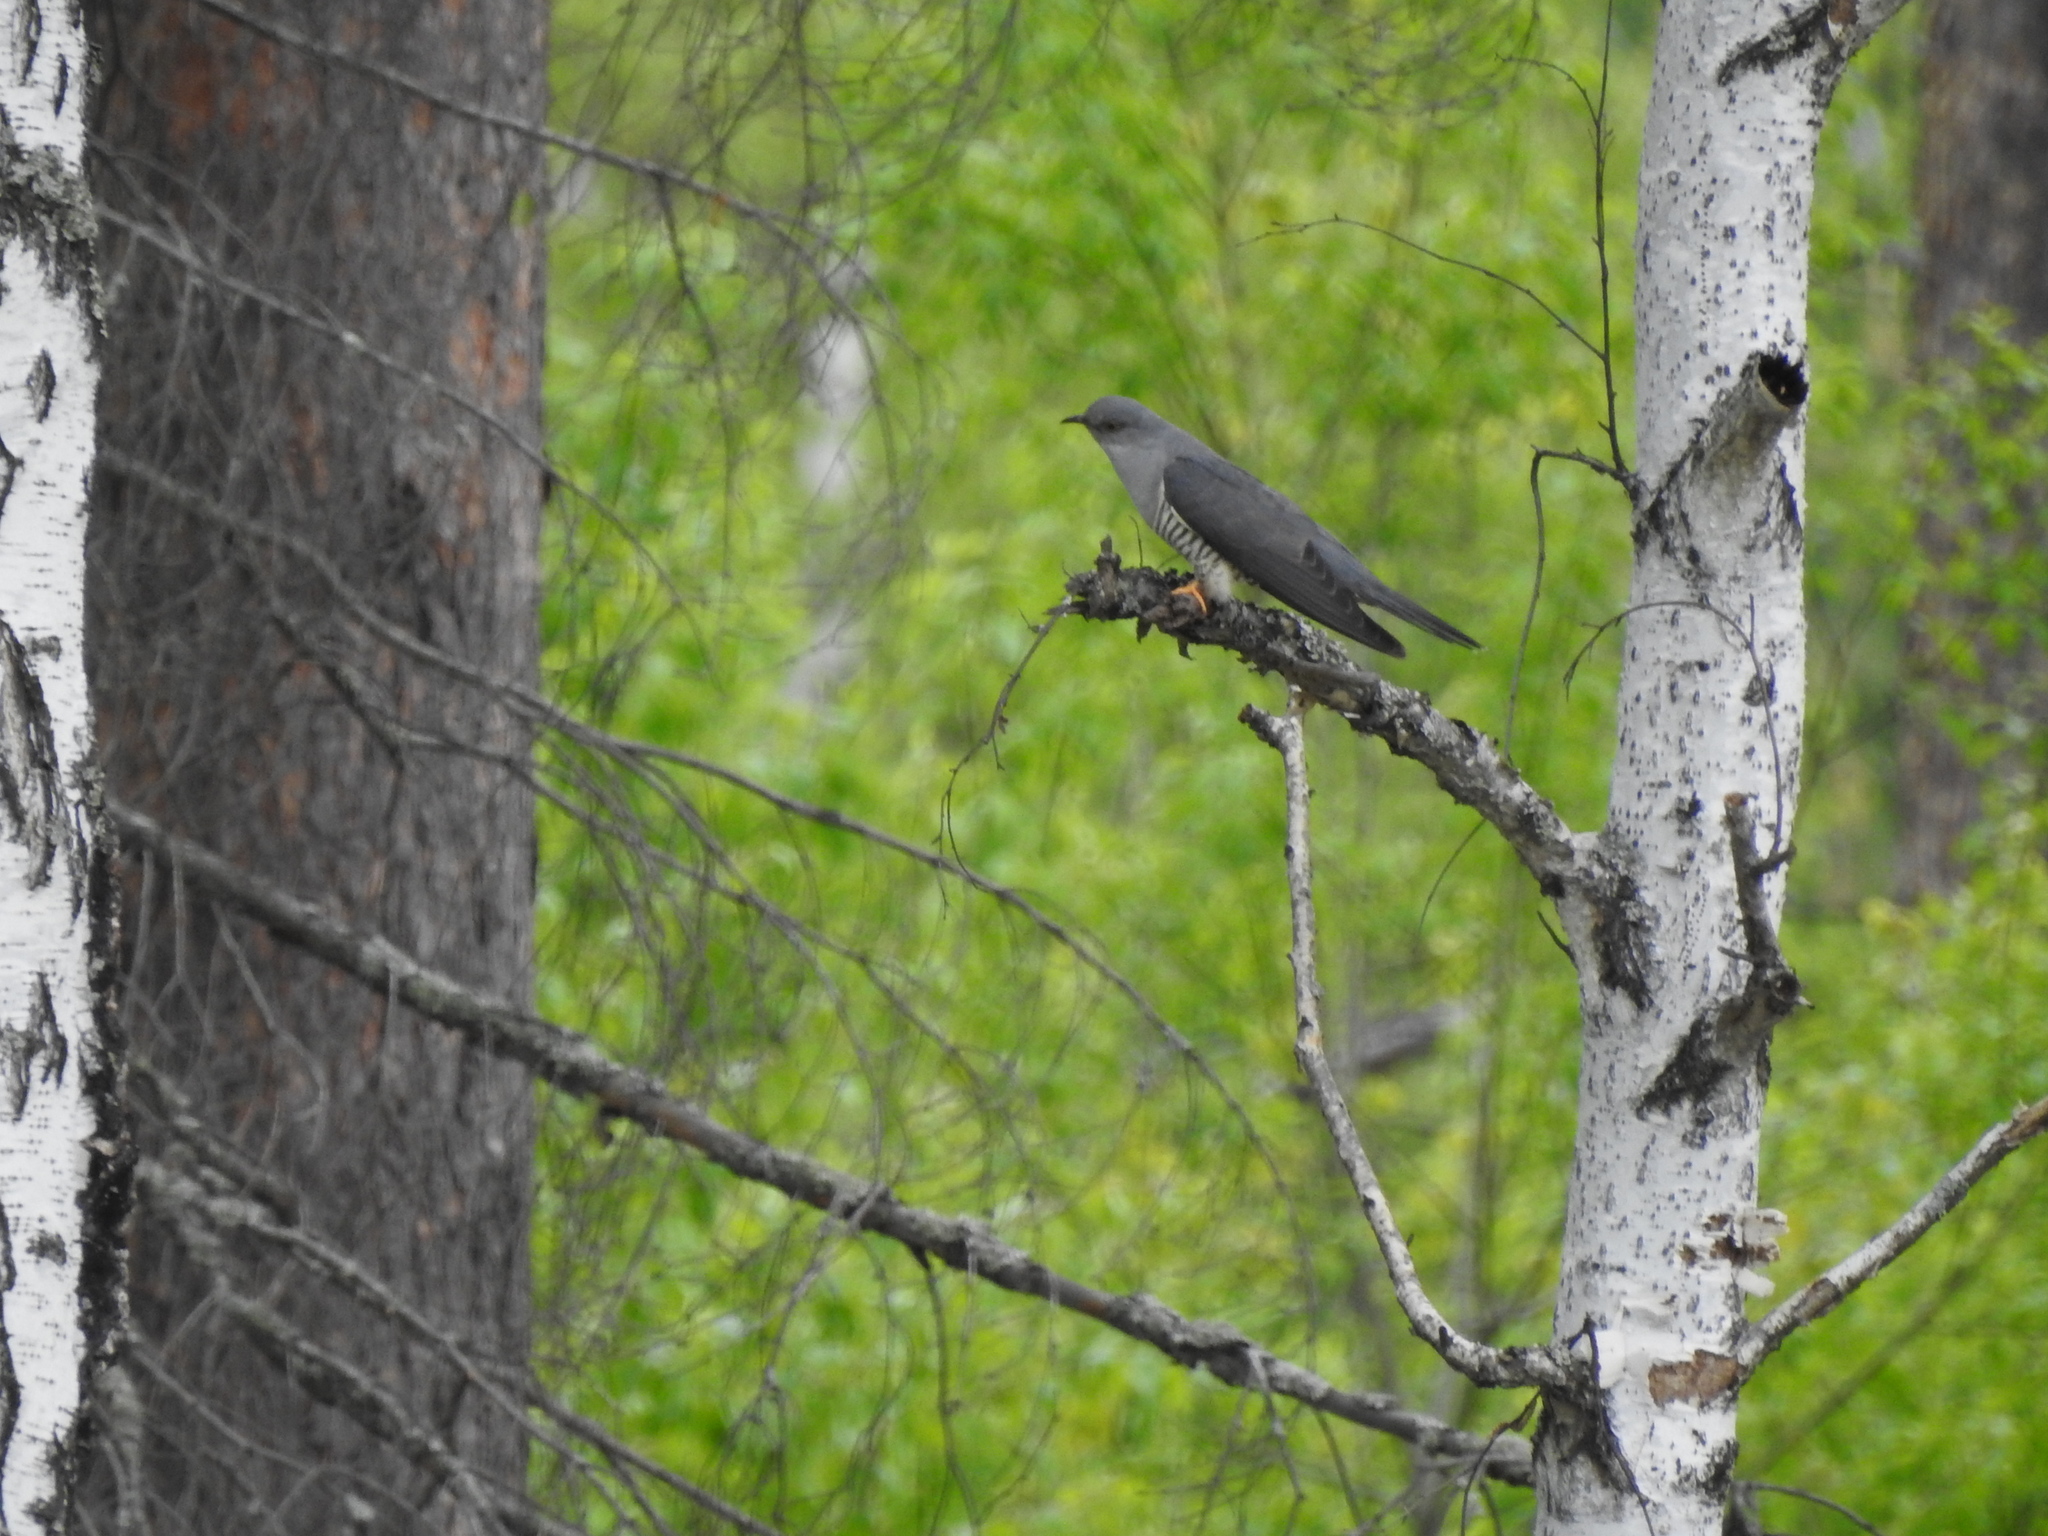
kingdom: Animalia
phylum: Chordata
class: Aves
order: Cuculiformes
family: Cuculidae
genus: Cuculus
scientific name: Cuculus canorus
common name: Common cuckoo
